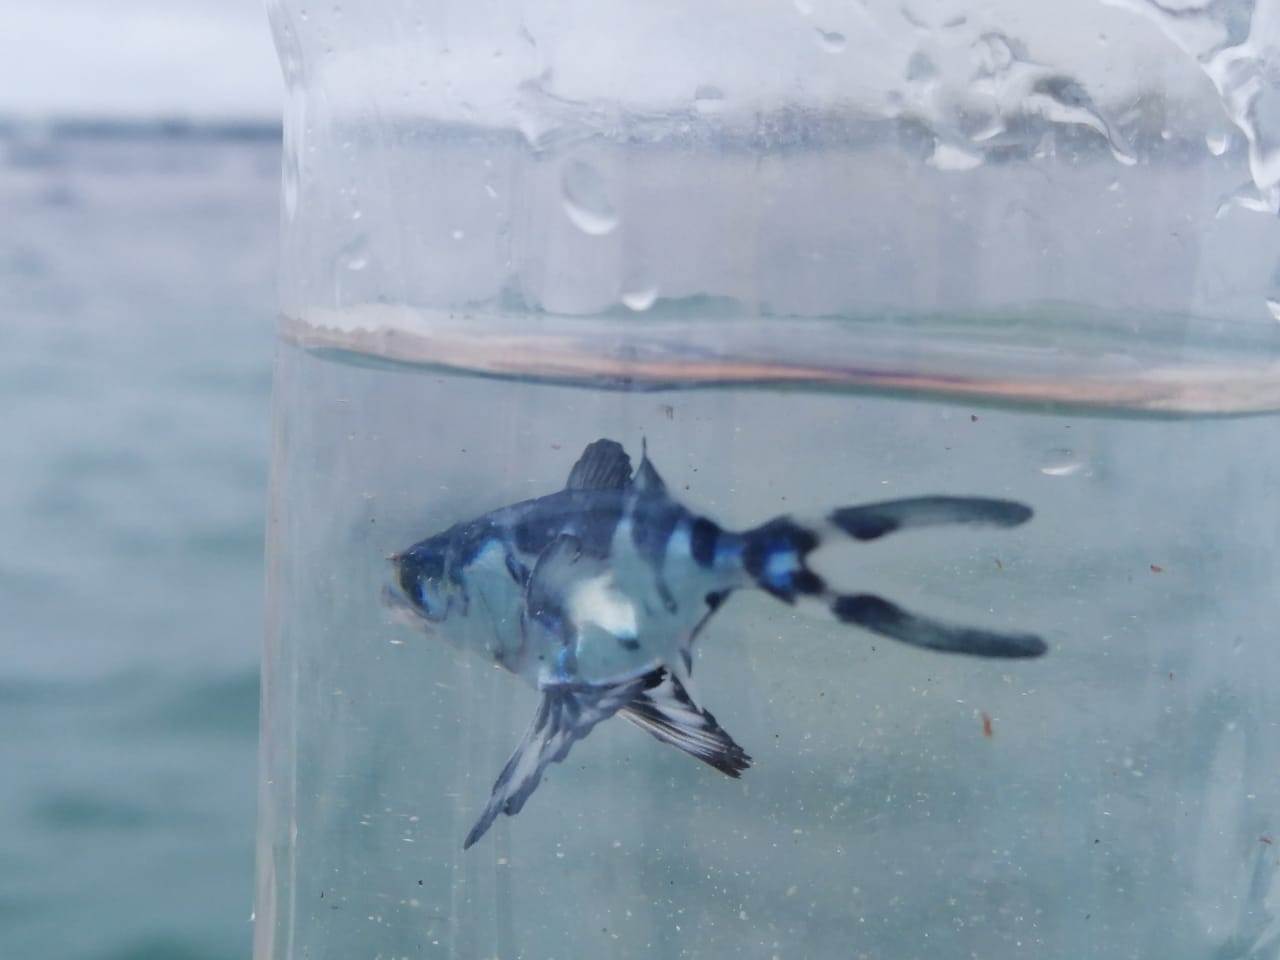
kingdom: Animalia
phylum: Chordata
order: Perciformes
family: Nomeidae
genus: Nomeus
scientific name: Nomeus gronovii
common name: Man-of-war fish
